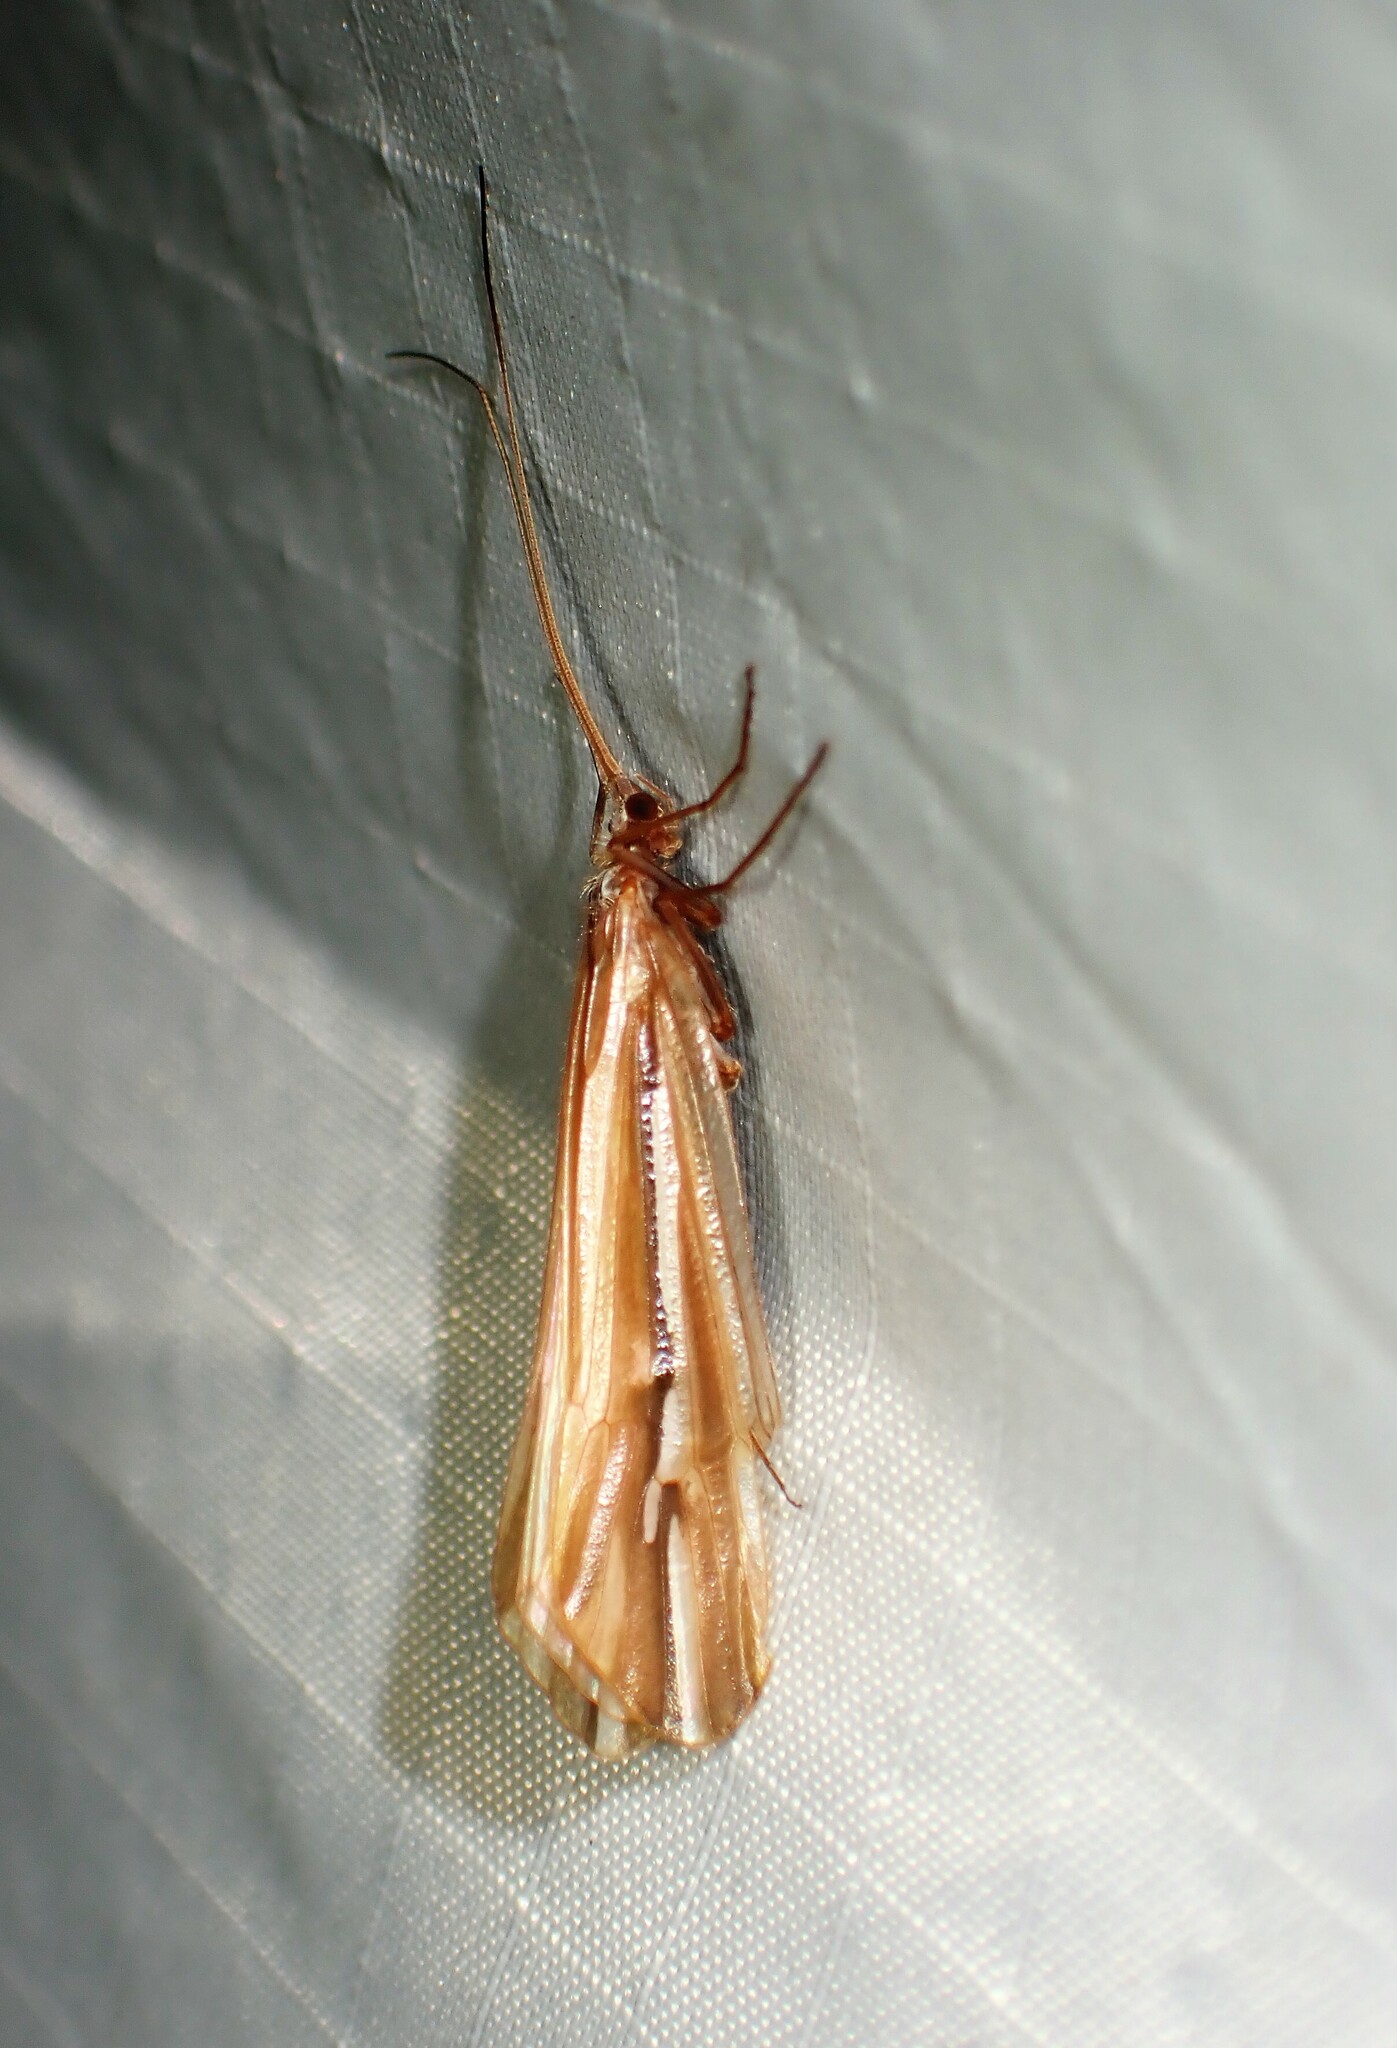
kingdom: Animalia
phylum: Arthropoda
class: Insecta
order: Trichoptera
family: Limnephilidae
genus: Psychoglypha
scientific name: Psychoglypha subborealis
